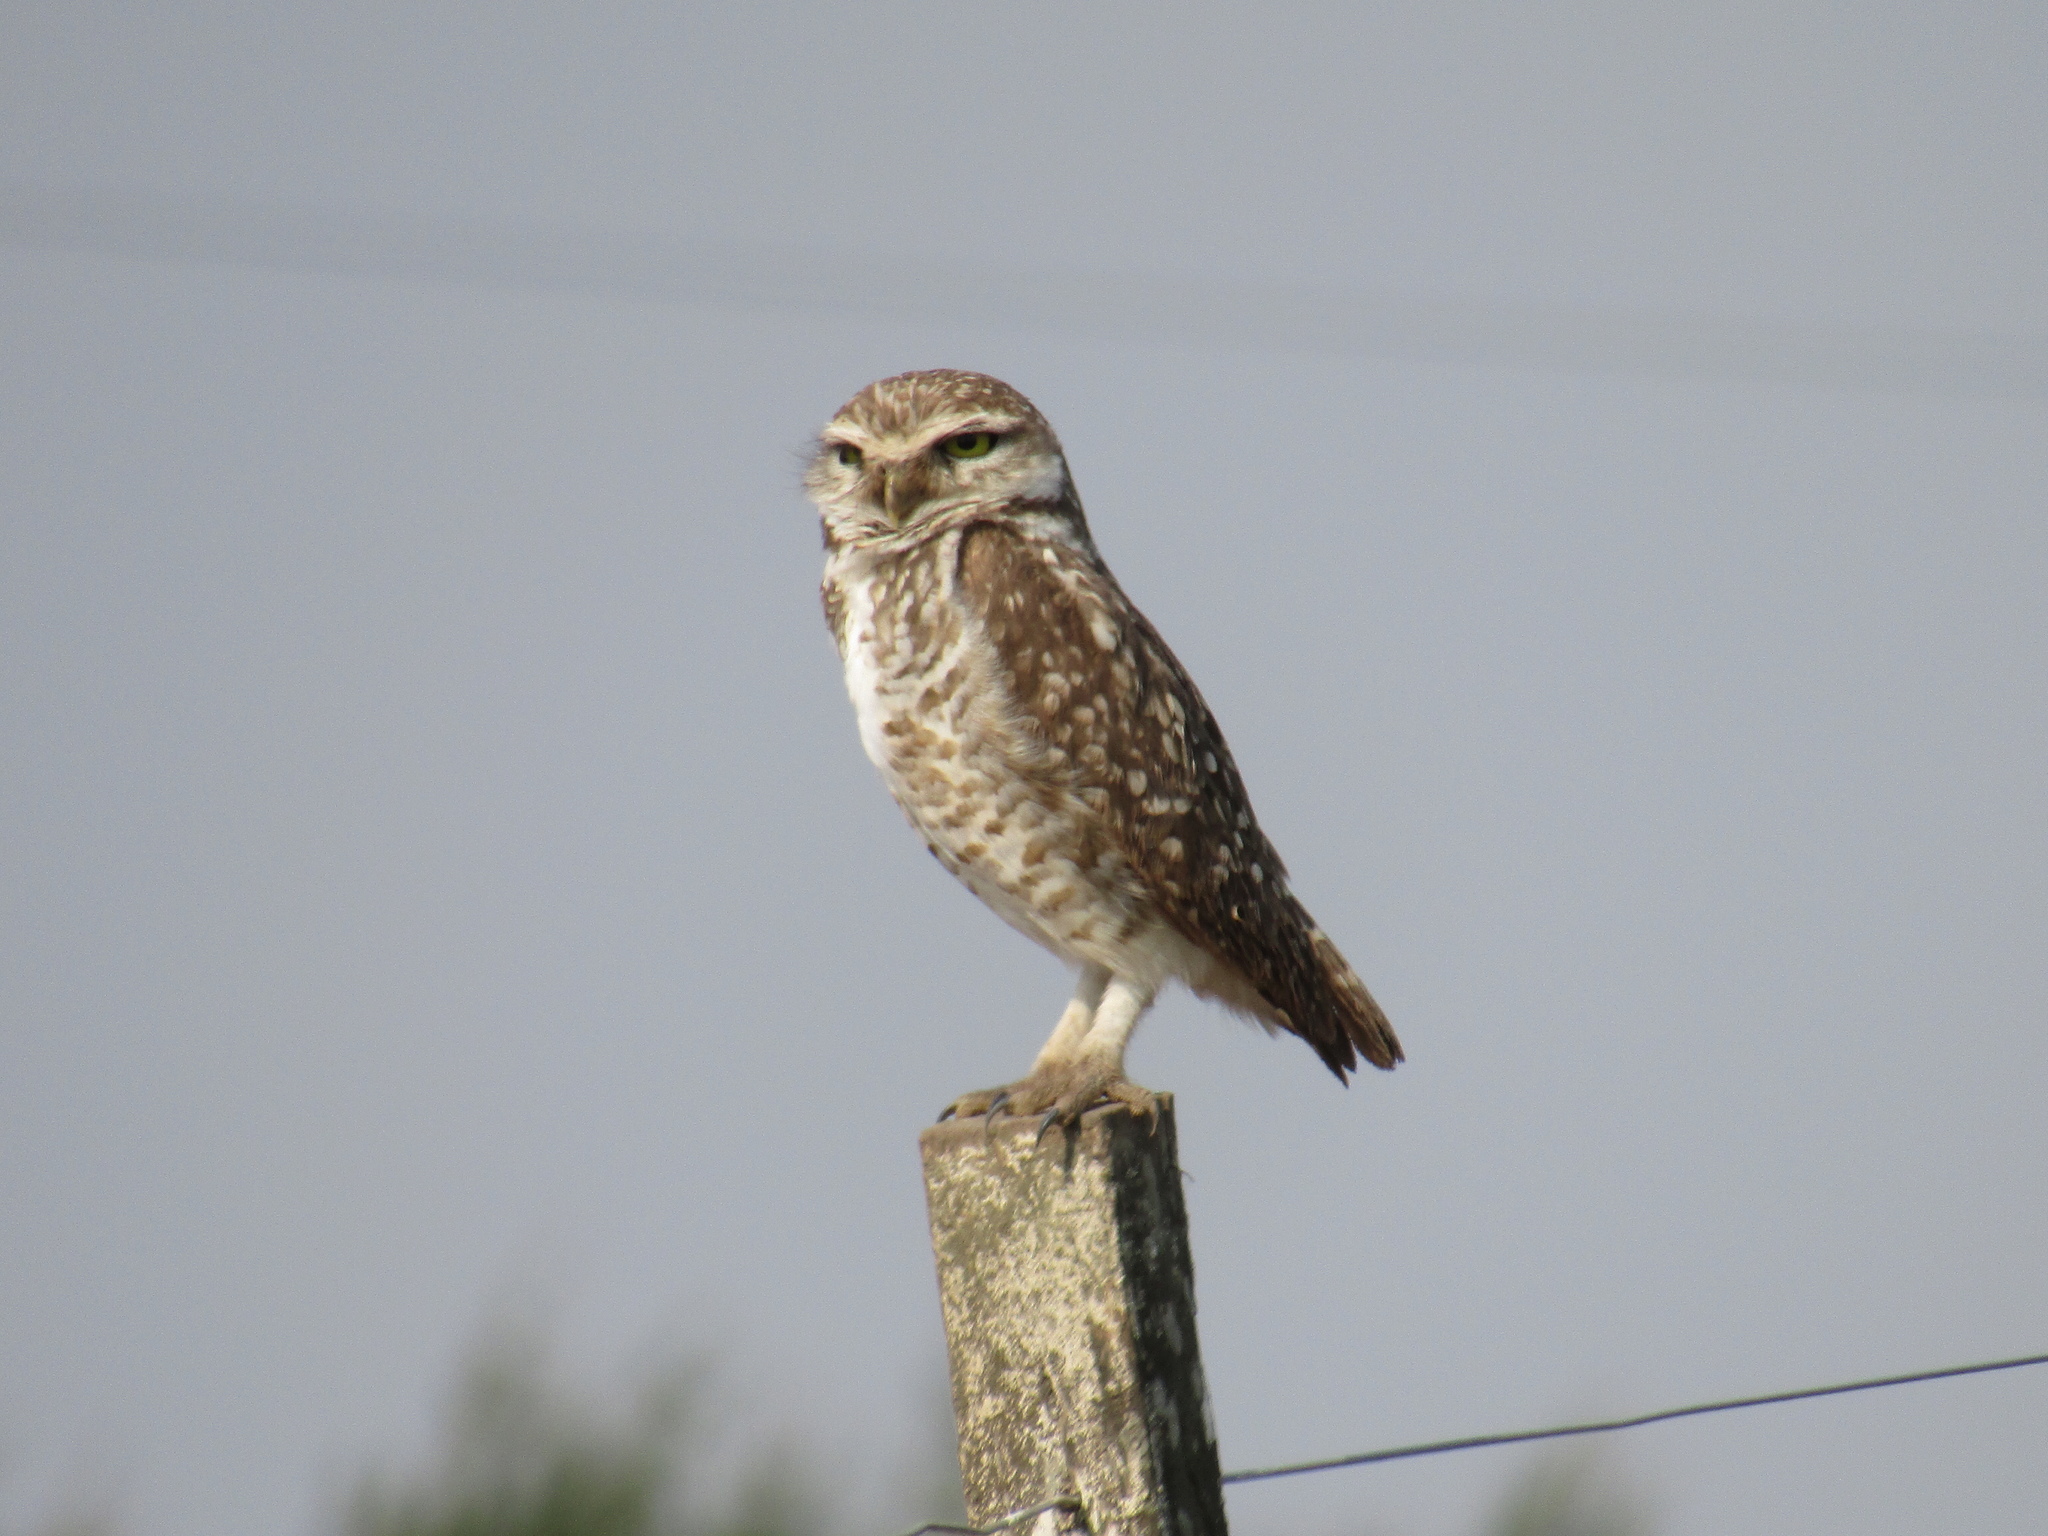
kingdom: Animalia
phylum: Chordata
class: Aves
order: Strigiformes
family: Strigidae
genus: Athene
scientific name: Athene cunicularia
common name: Burrowing owl
